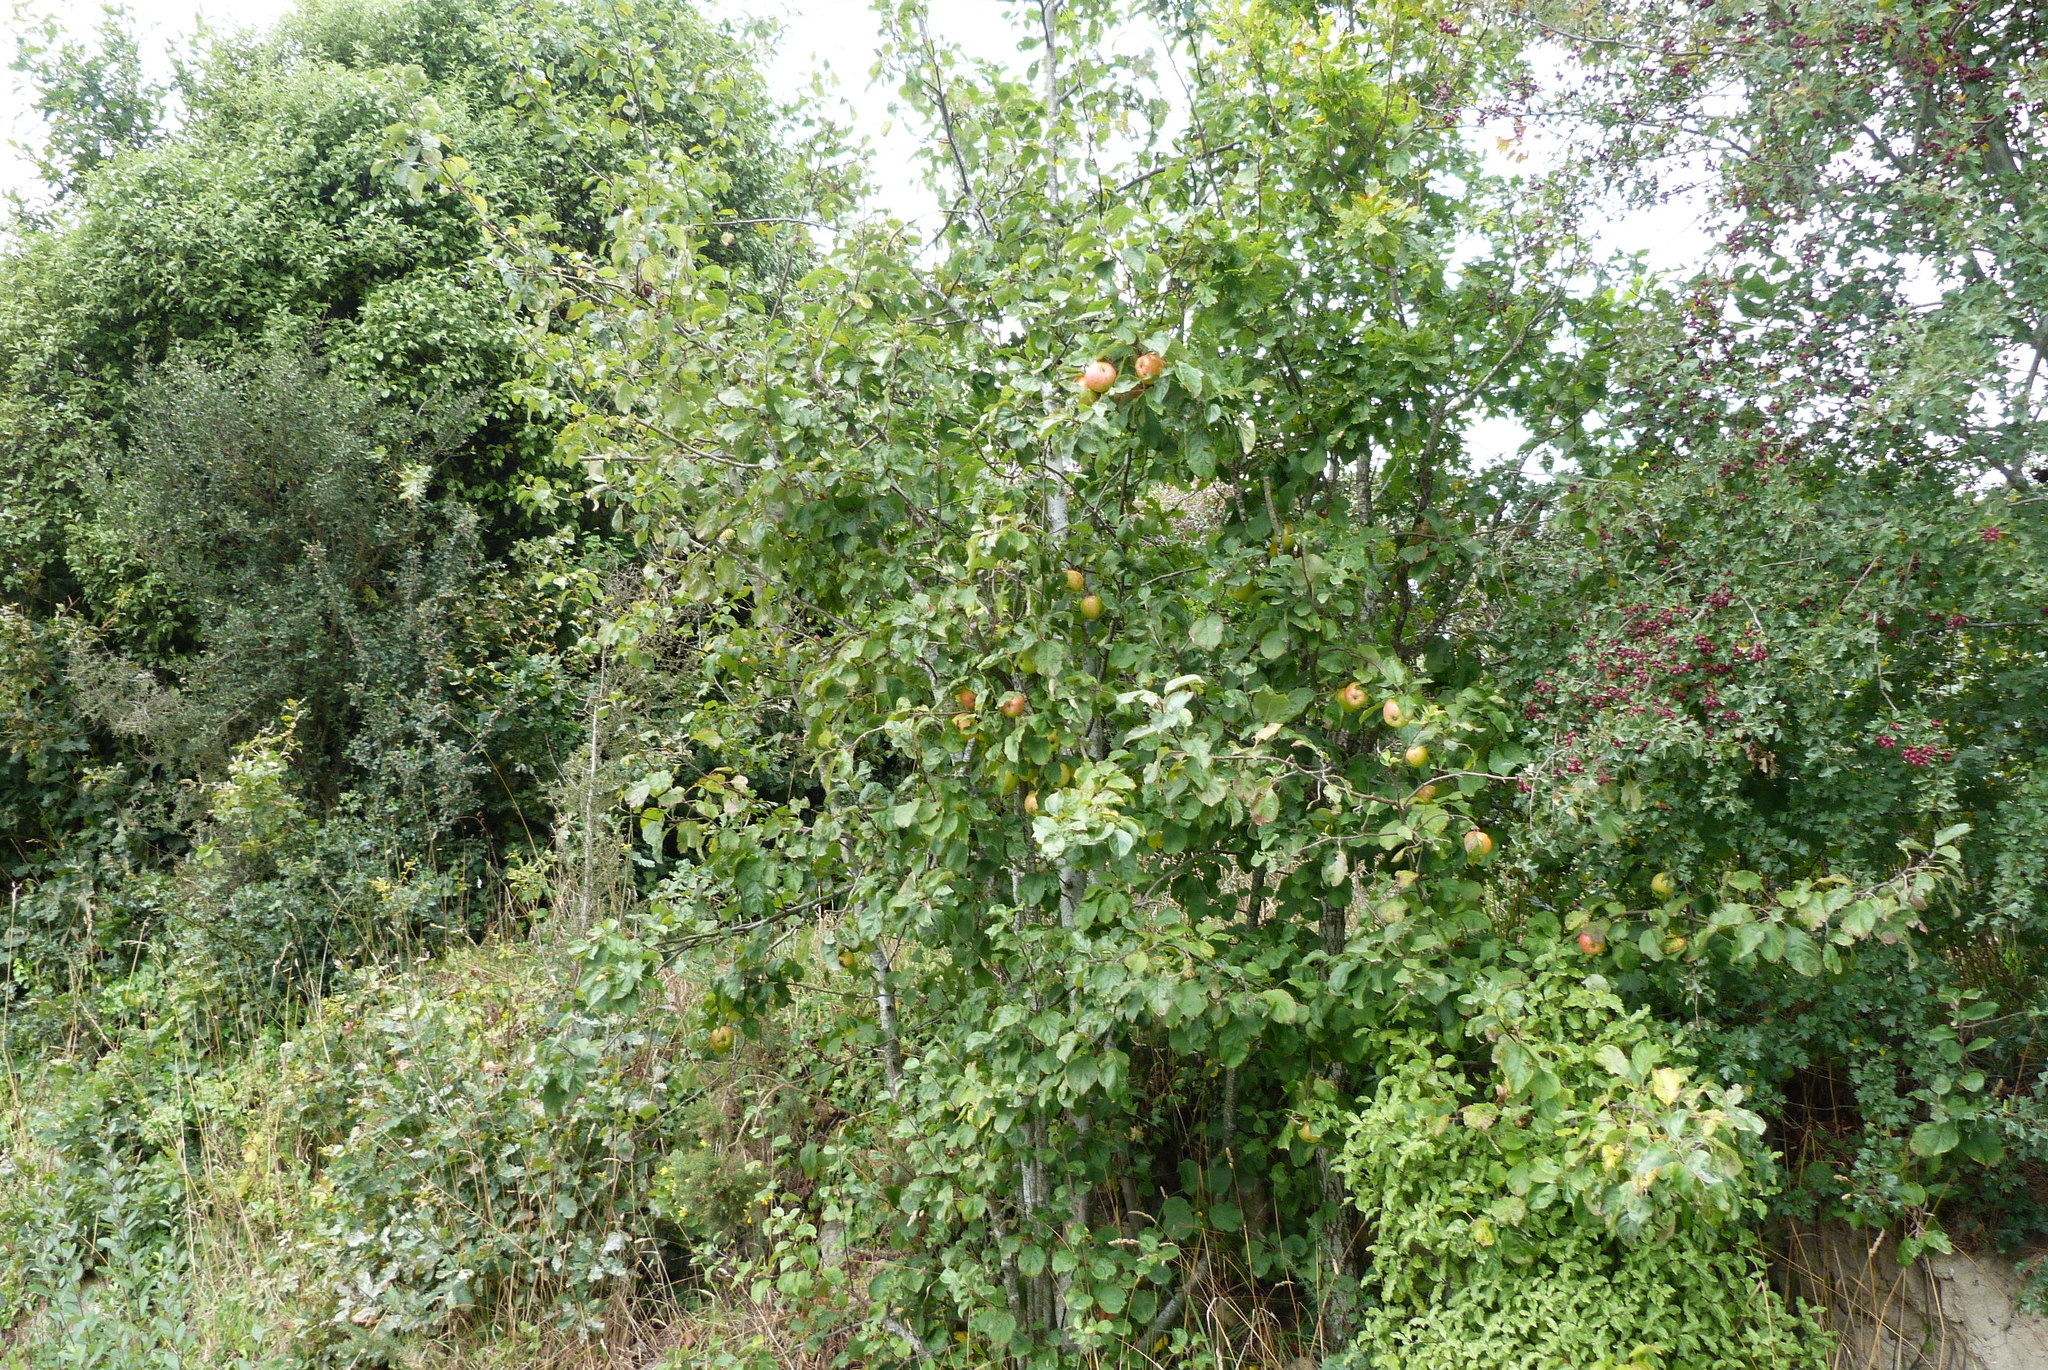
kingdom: Plantae
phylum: Tracheophyta
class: Magnoliopsida
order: Rosales
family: Rosaceae
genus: Malus
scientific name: Malus domestica
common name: Apple
